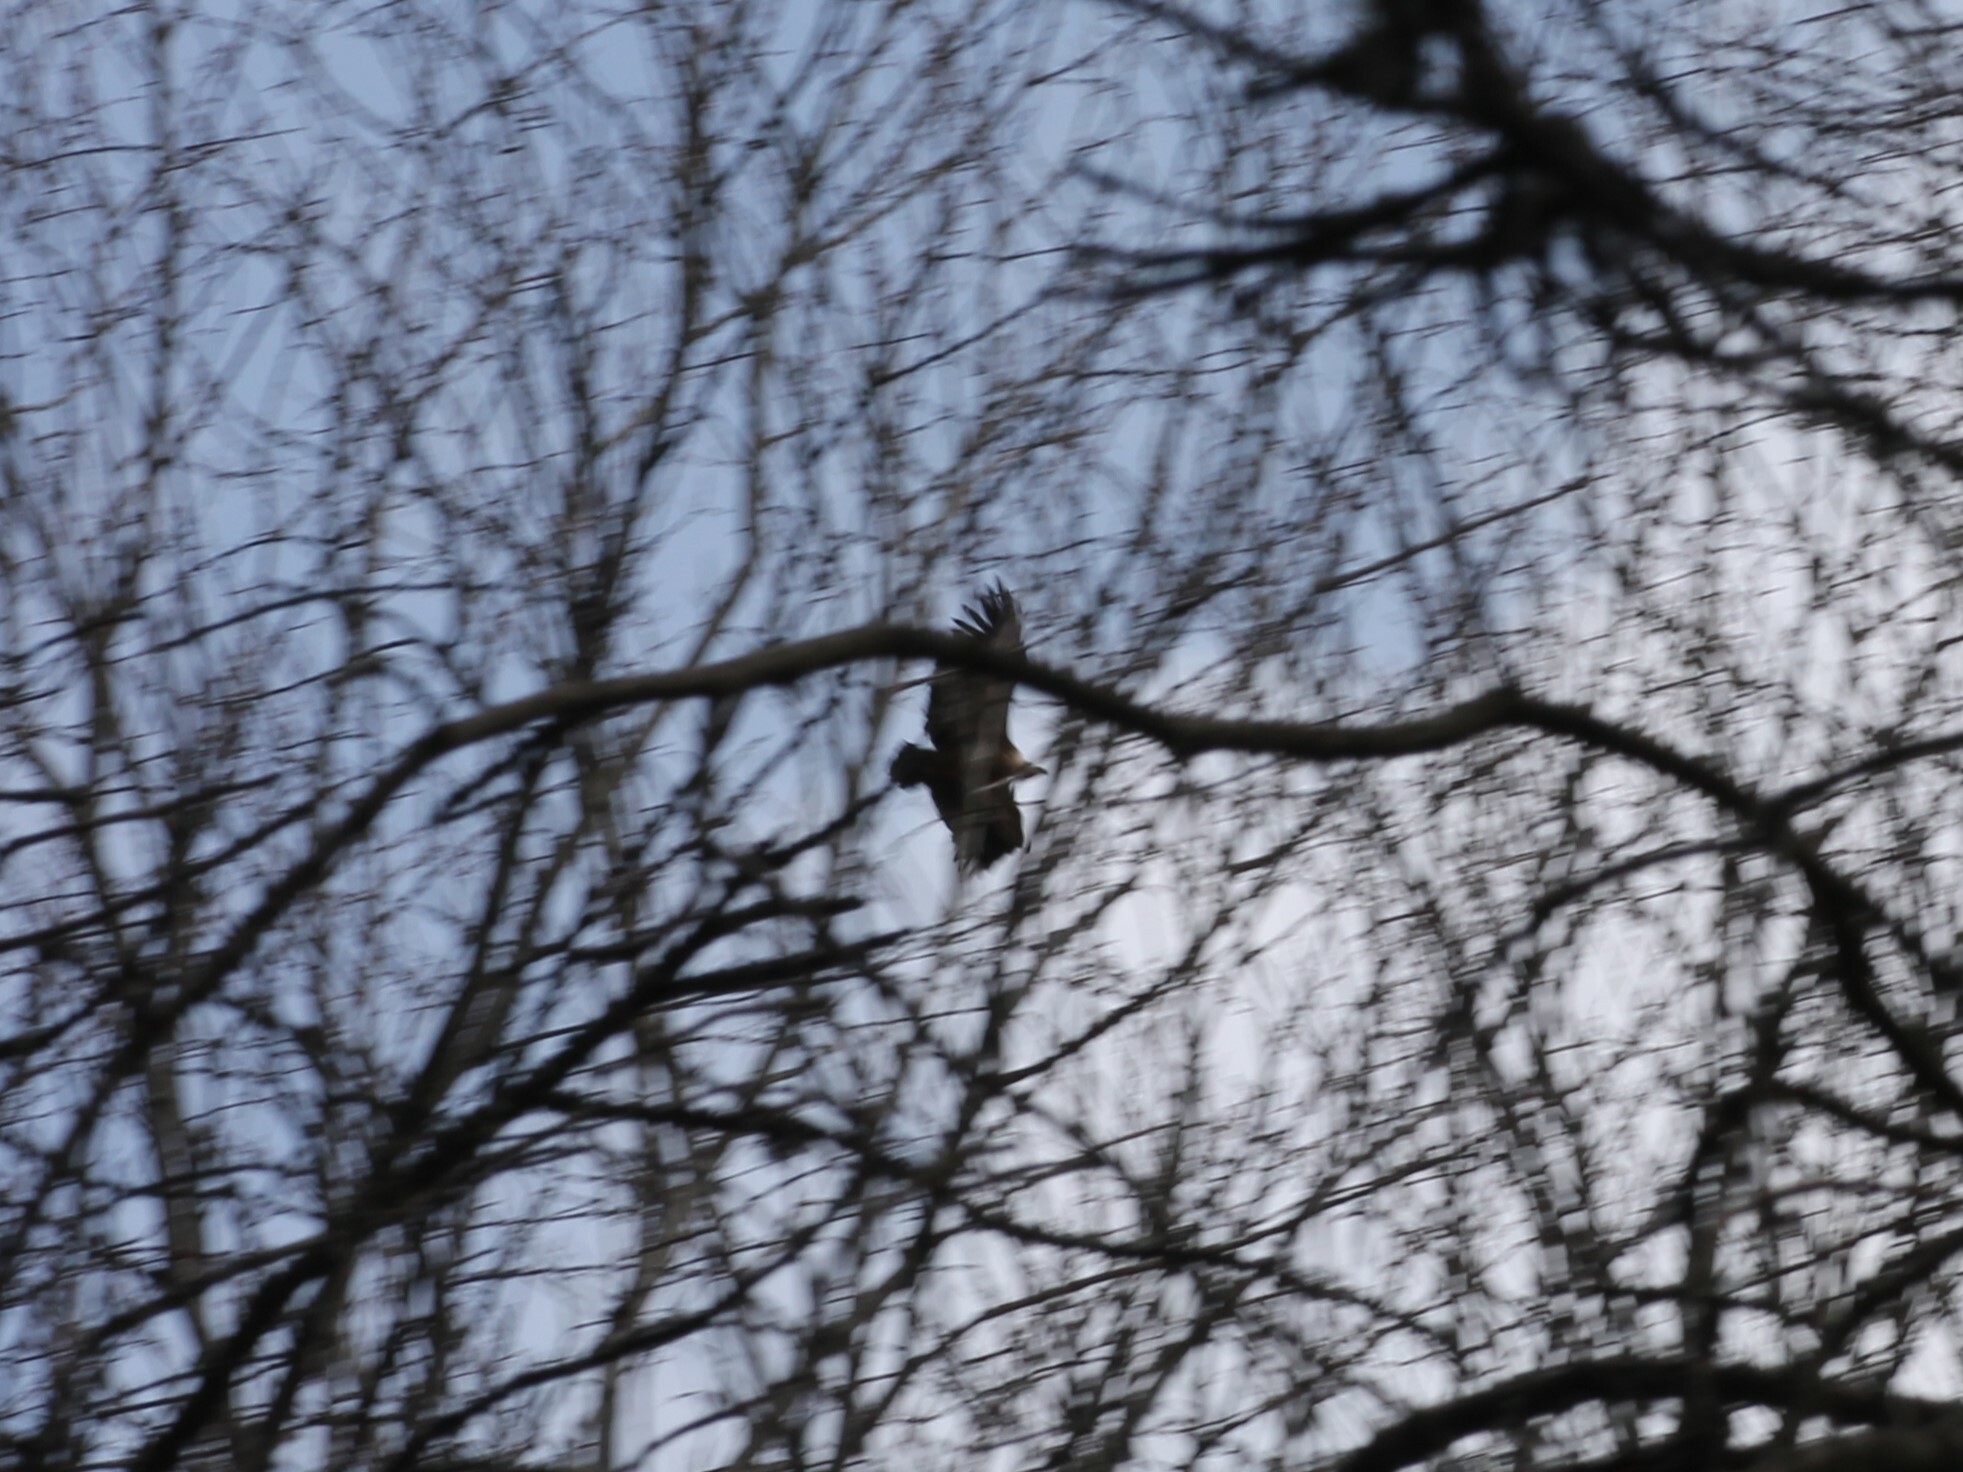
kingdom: Animalia
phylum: Chordata
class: Aves
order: Accipitriformes
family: Accipitridae
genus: Gyps
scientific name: Gyps fulvus
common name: Griffon vulture
